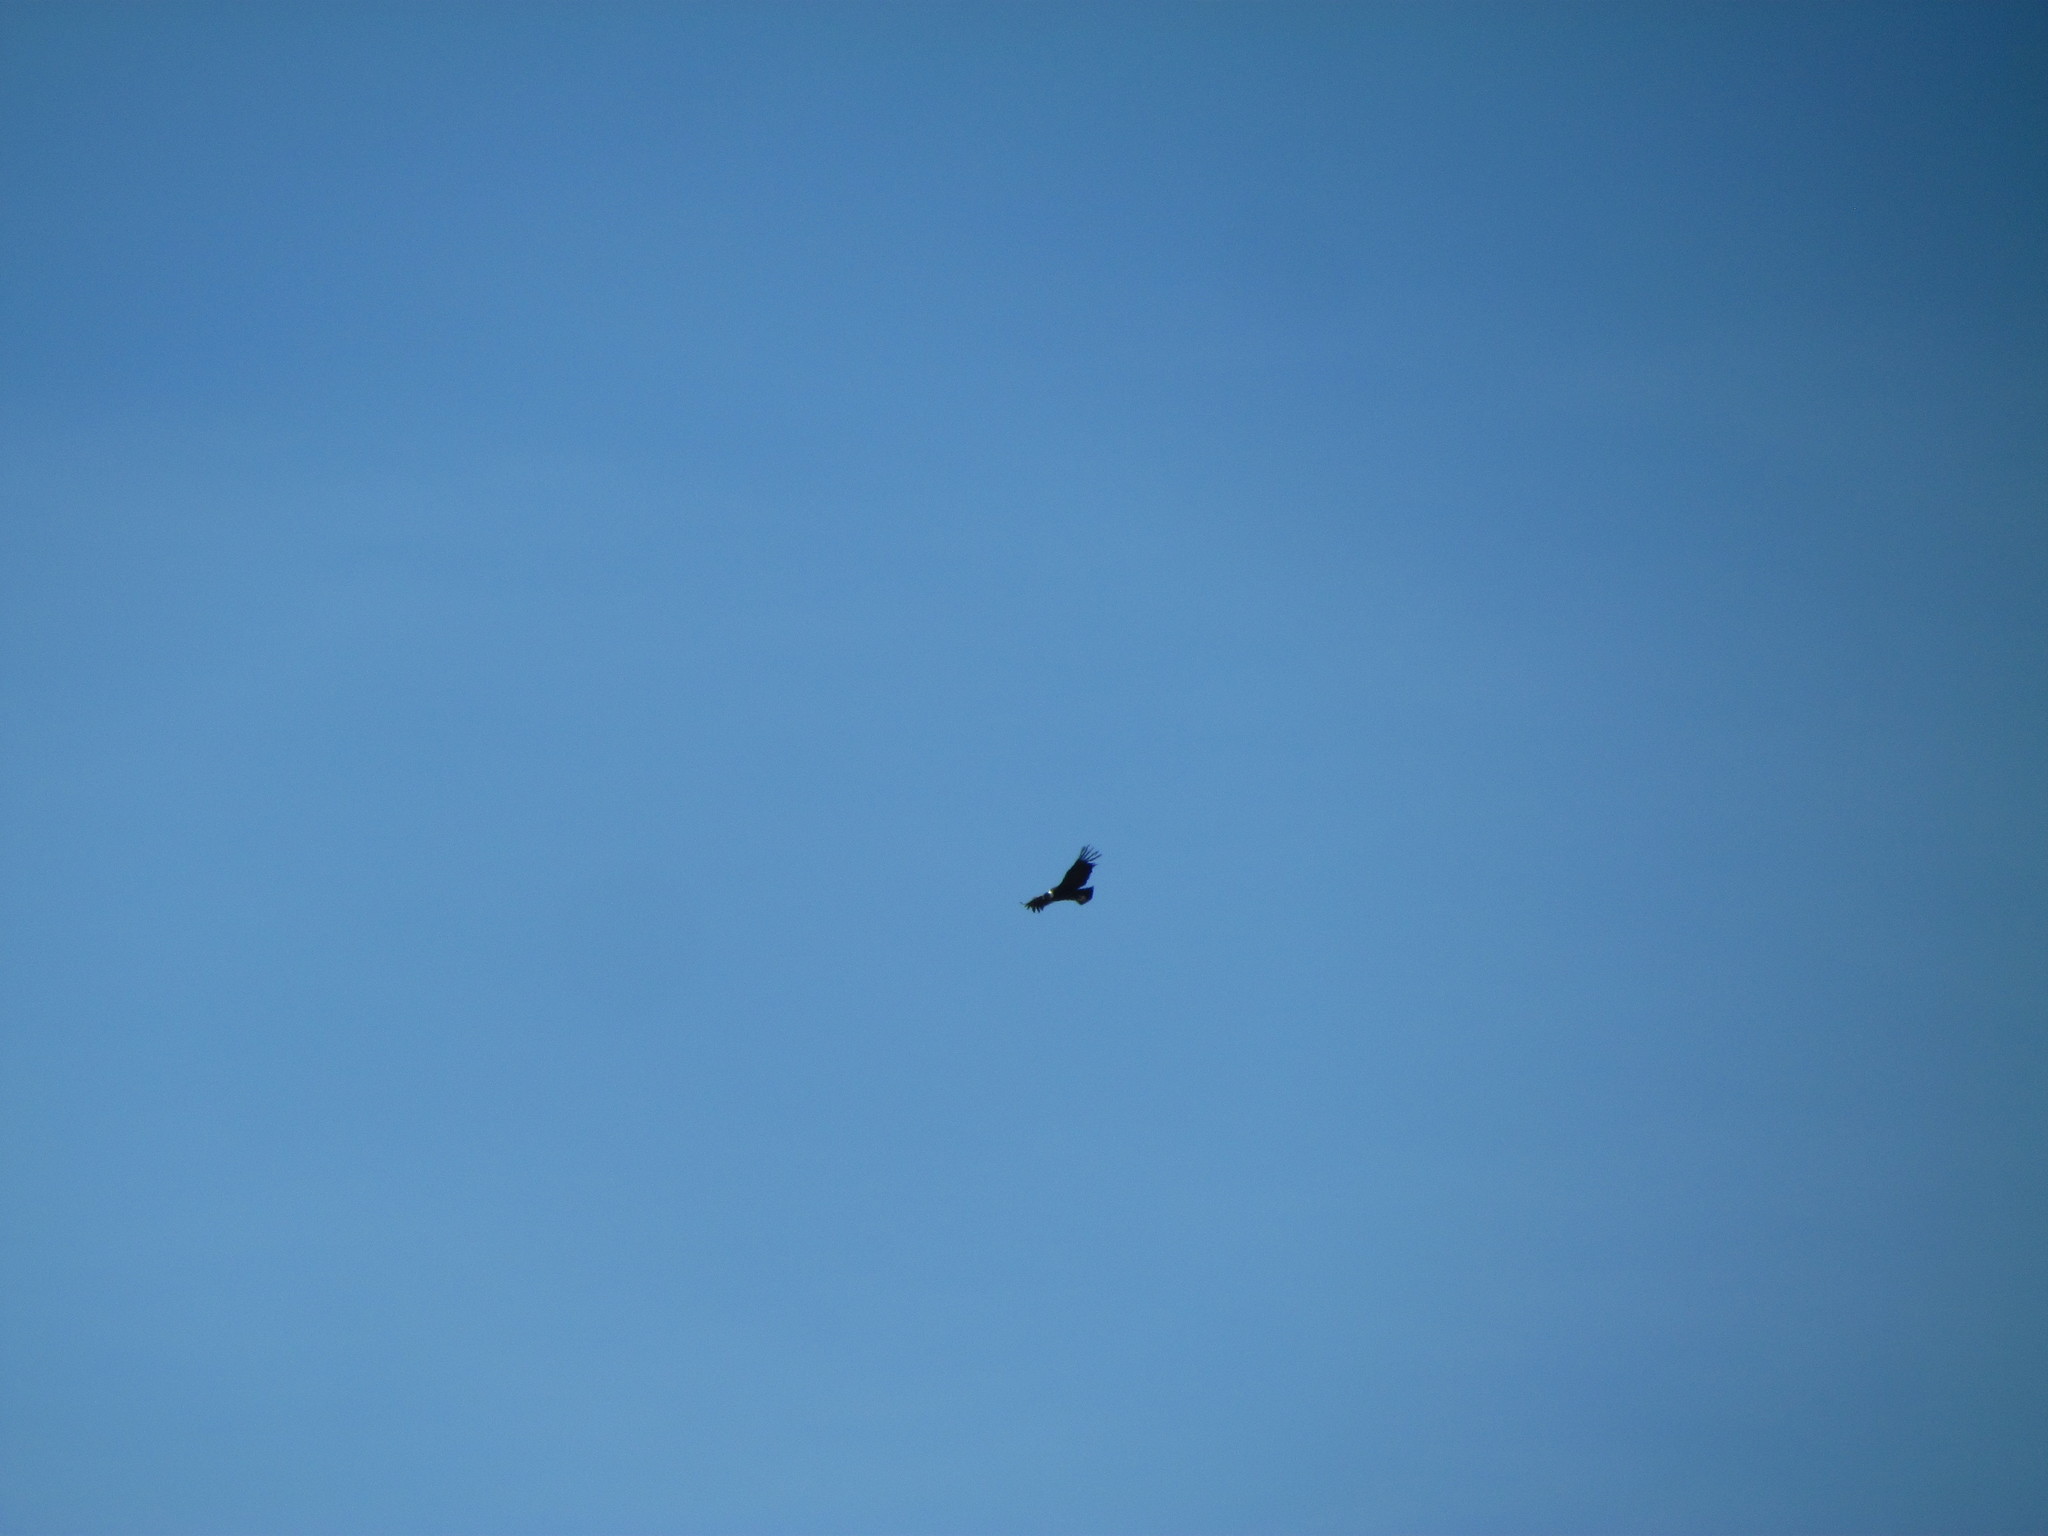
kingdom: Animalia
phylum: Chordata
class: Aves
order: Accipitriformes
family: Cathartidae
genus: Vultur
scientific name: Vultur gryphus
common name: Andean condor
